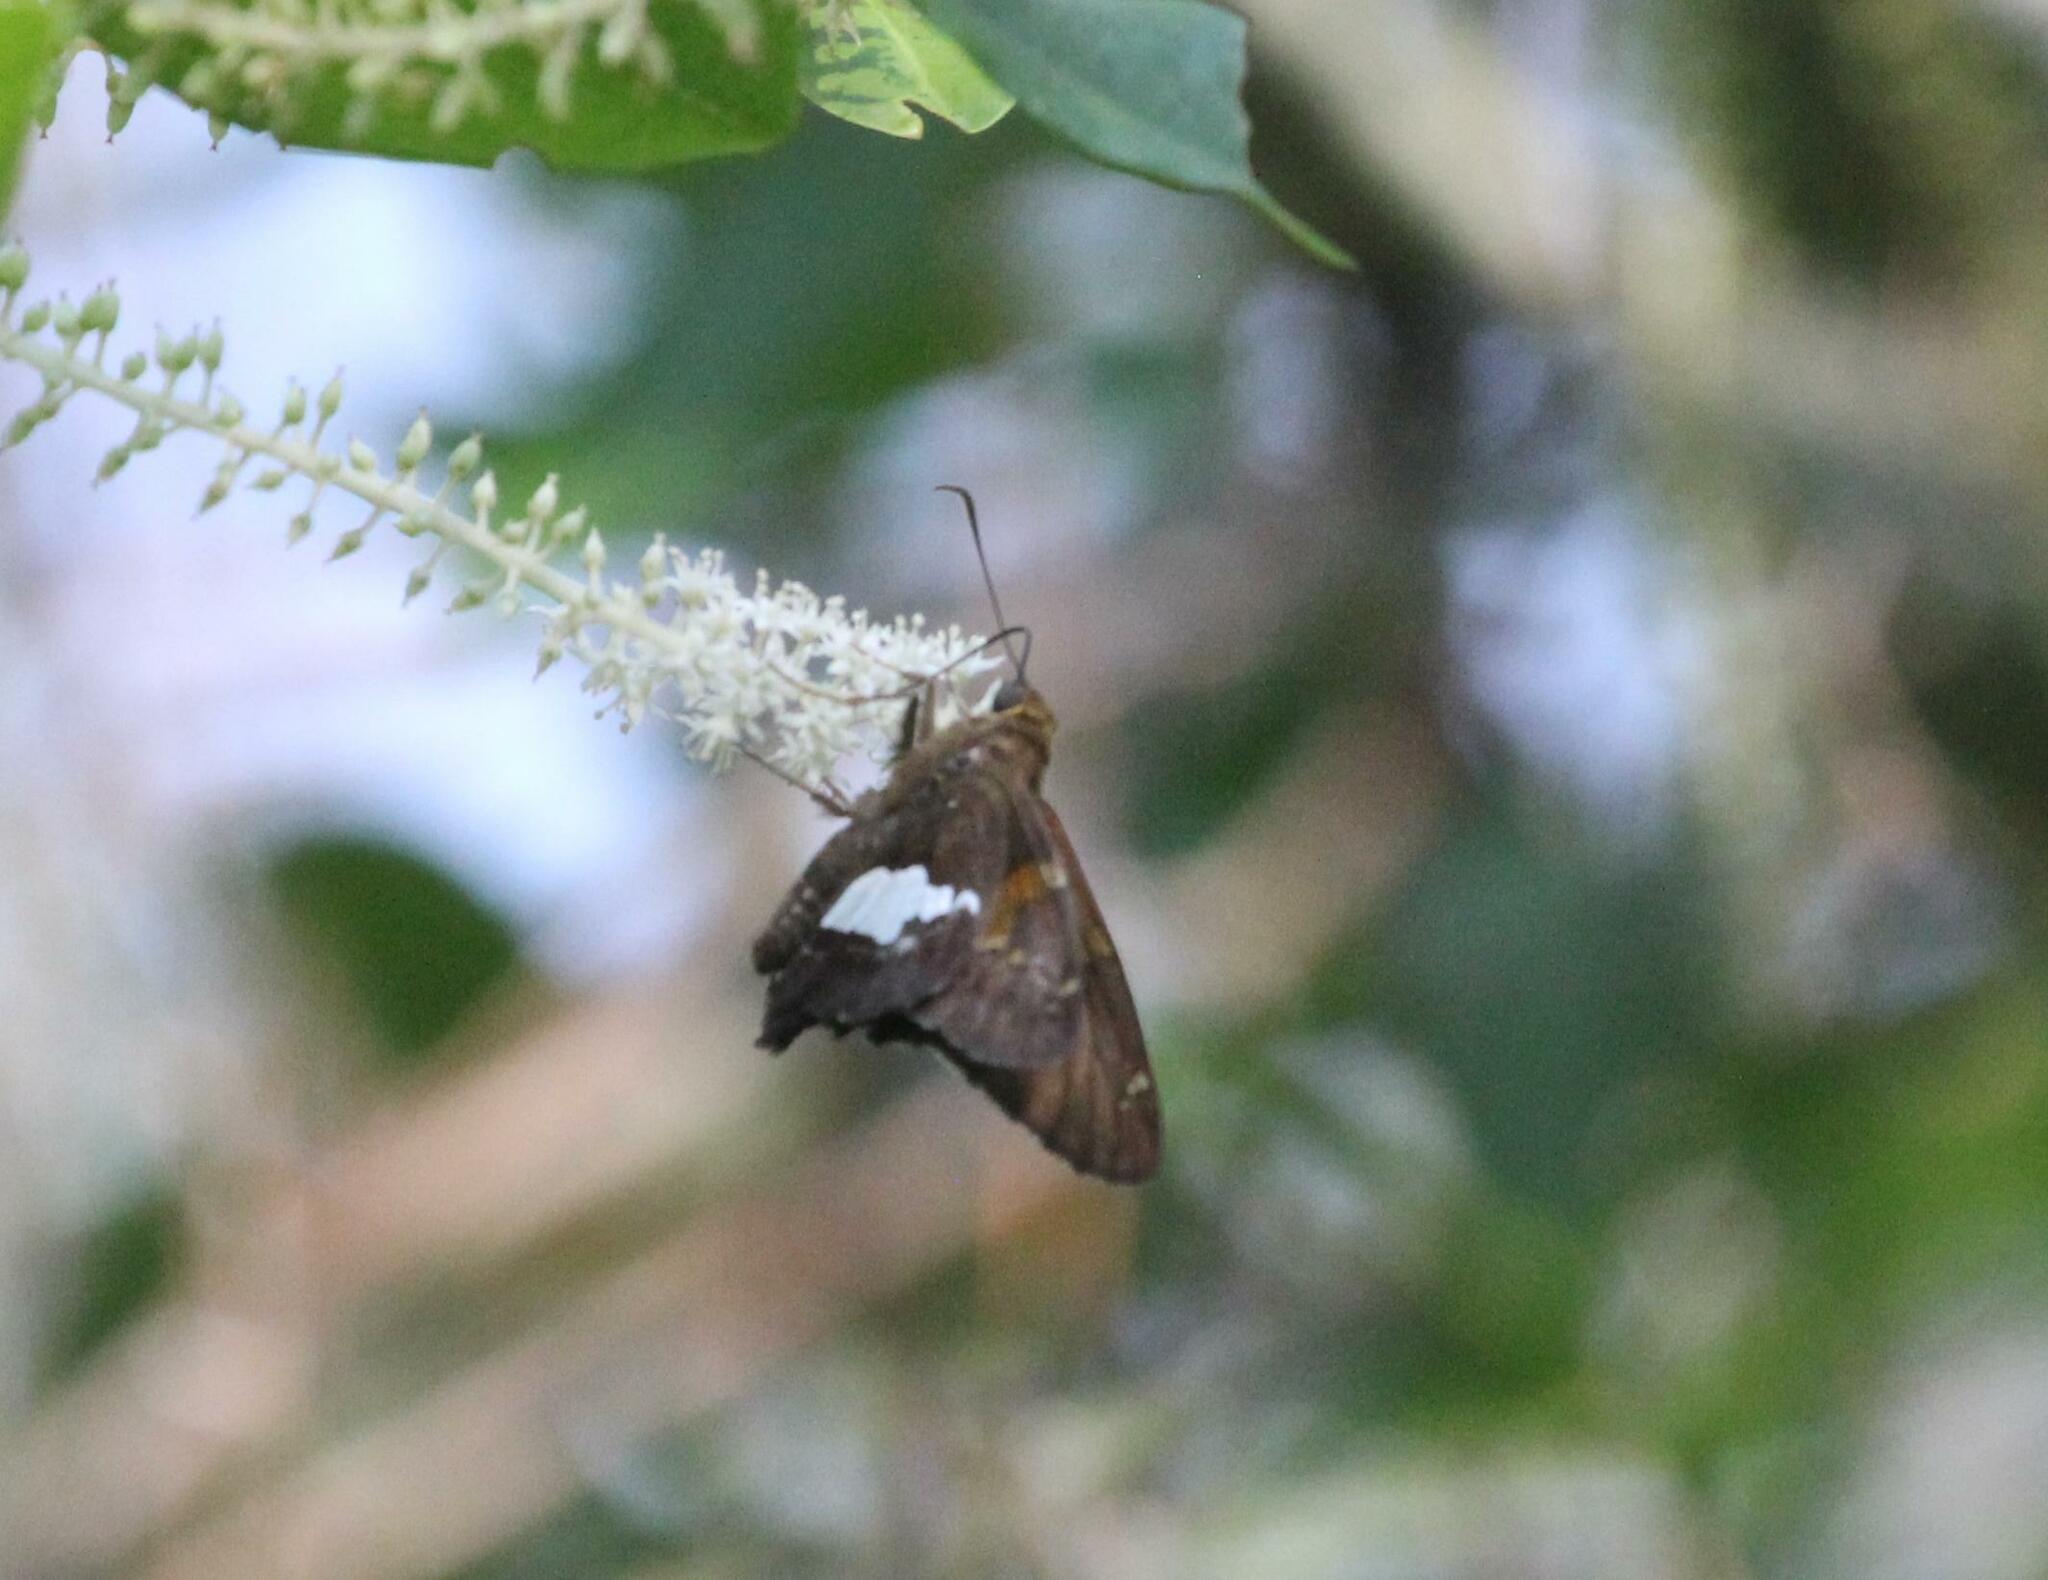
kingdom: Animalia
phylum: Arthropoda
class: Insecta
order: Lepidoptera
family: Hesperiidae
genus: Epargyreus
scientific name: Epargyreus clarus
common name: Silver-spotted skipper
